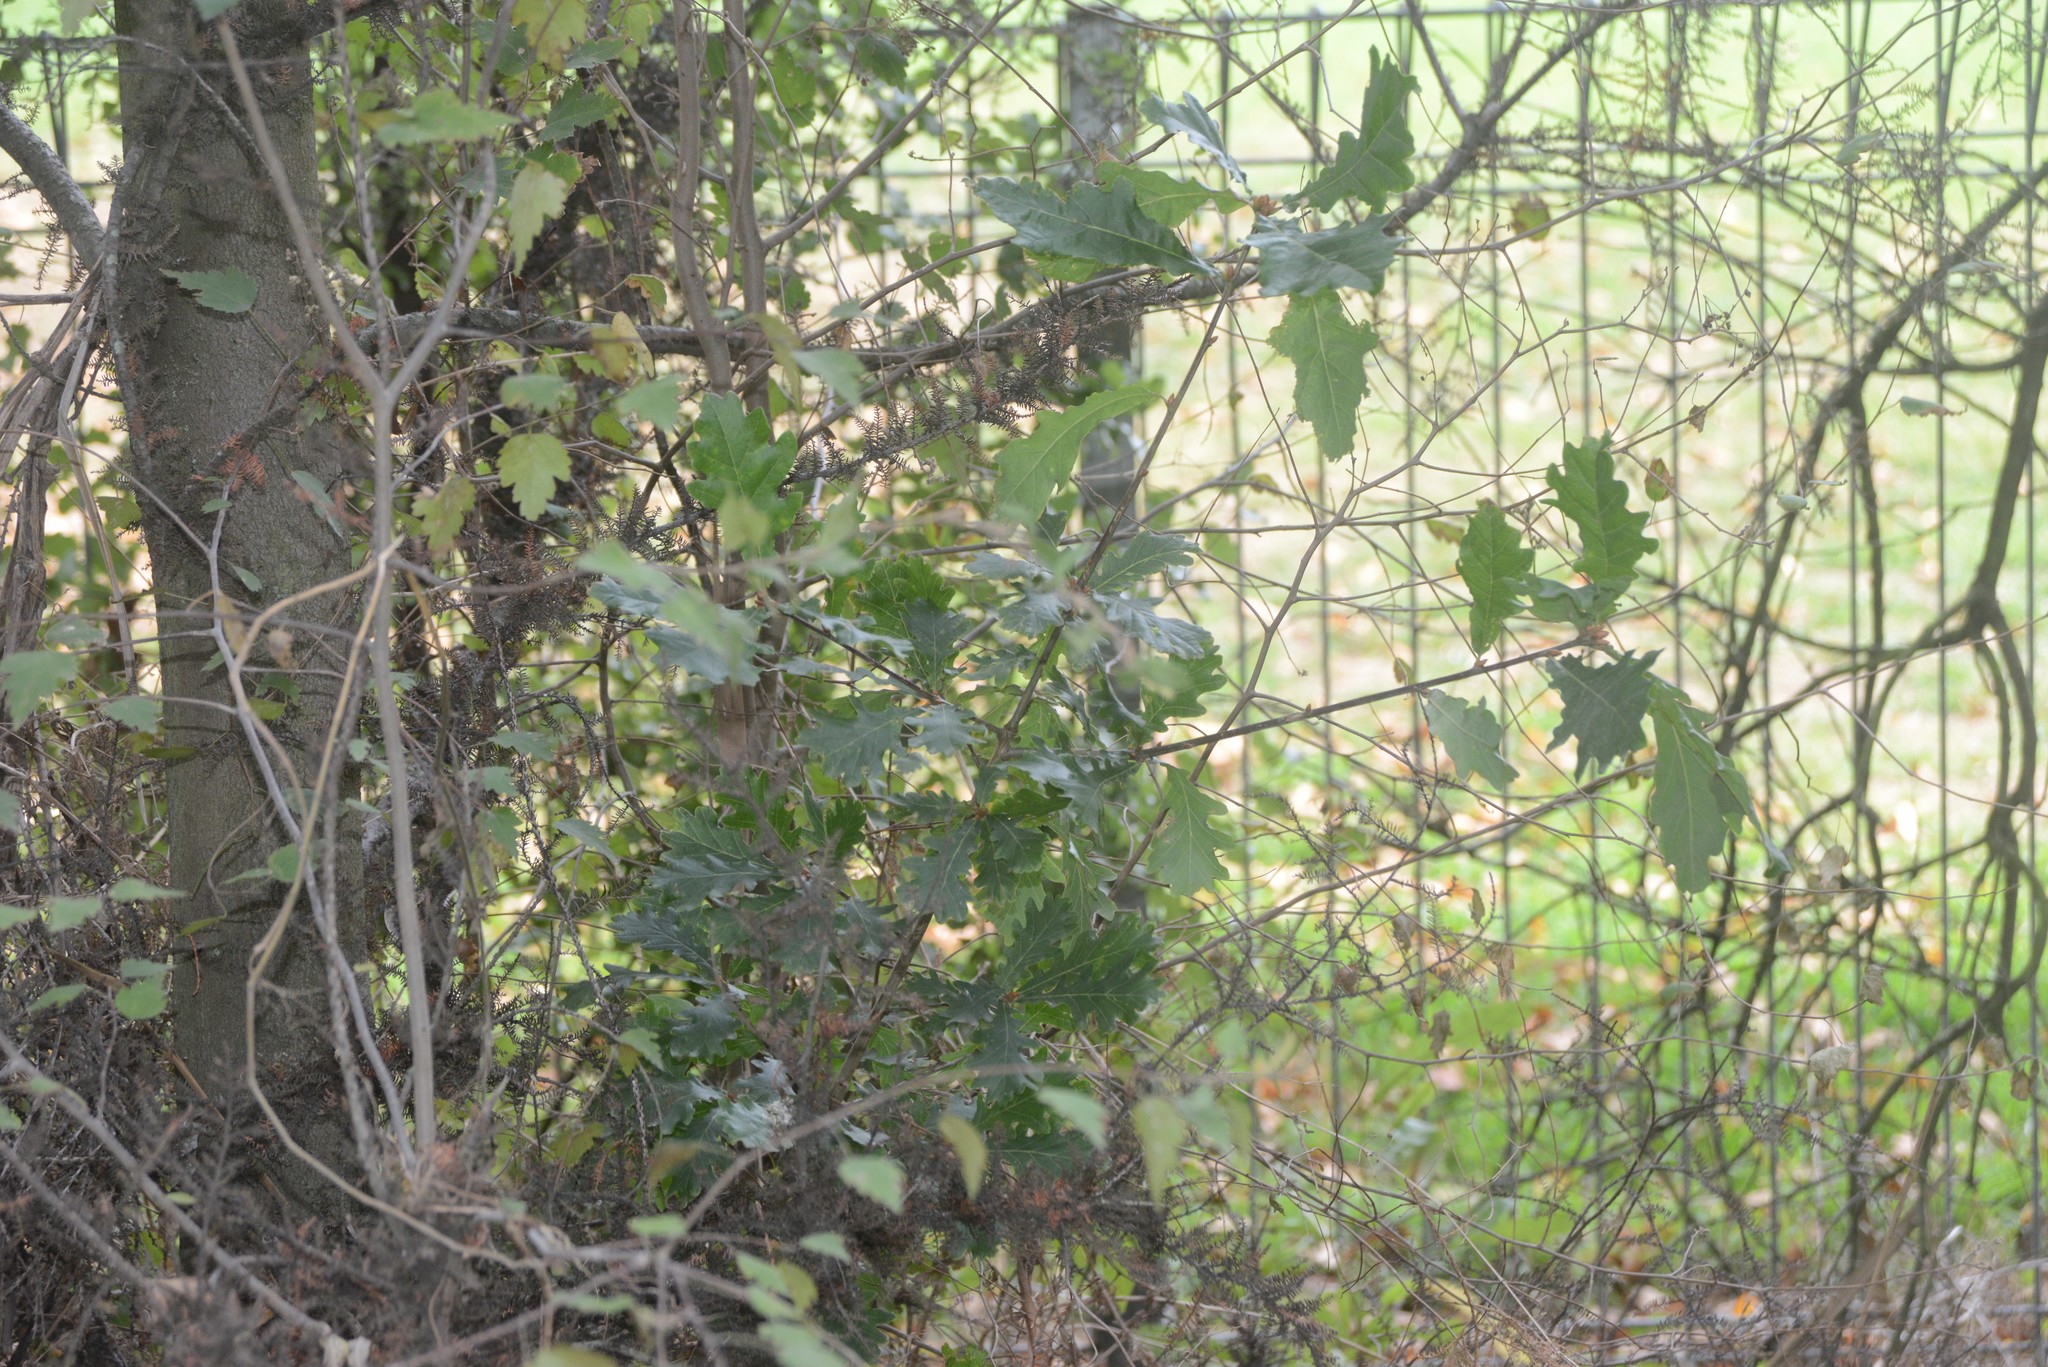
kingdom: Plantae
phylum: Tracheophyta
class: Magnoliopsida
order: Fagales
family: Fagaceae
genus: Quercus
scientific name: Quercus robur
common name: Pedunculate oak
